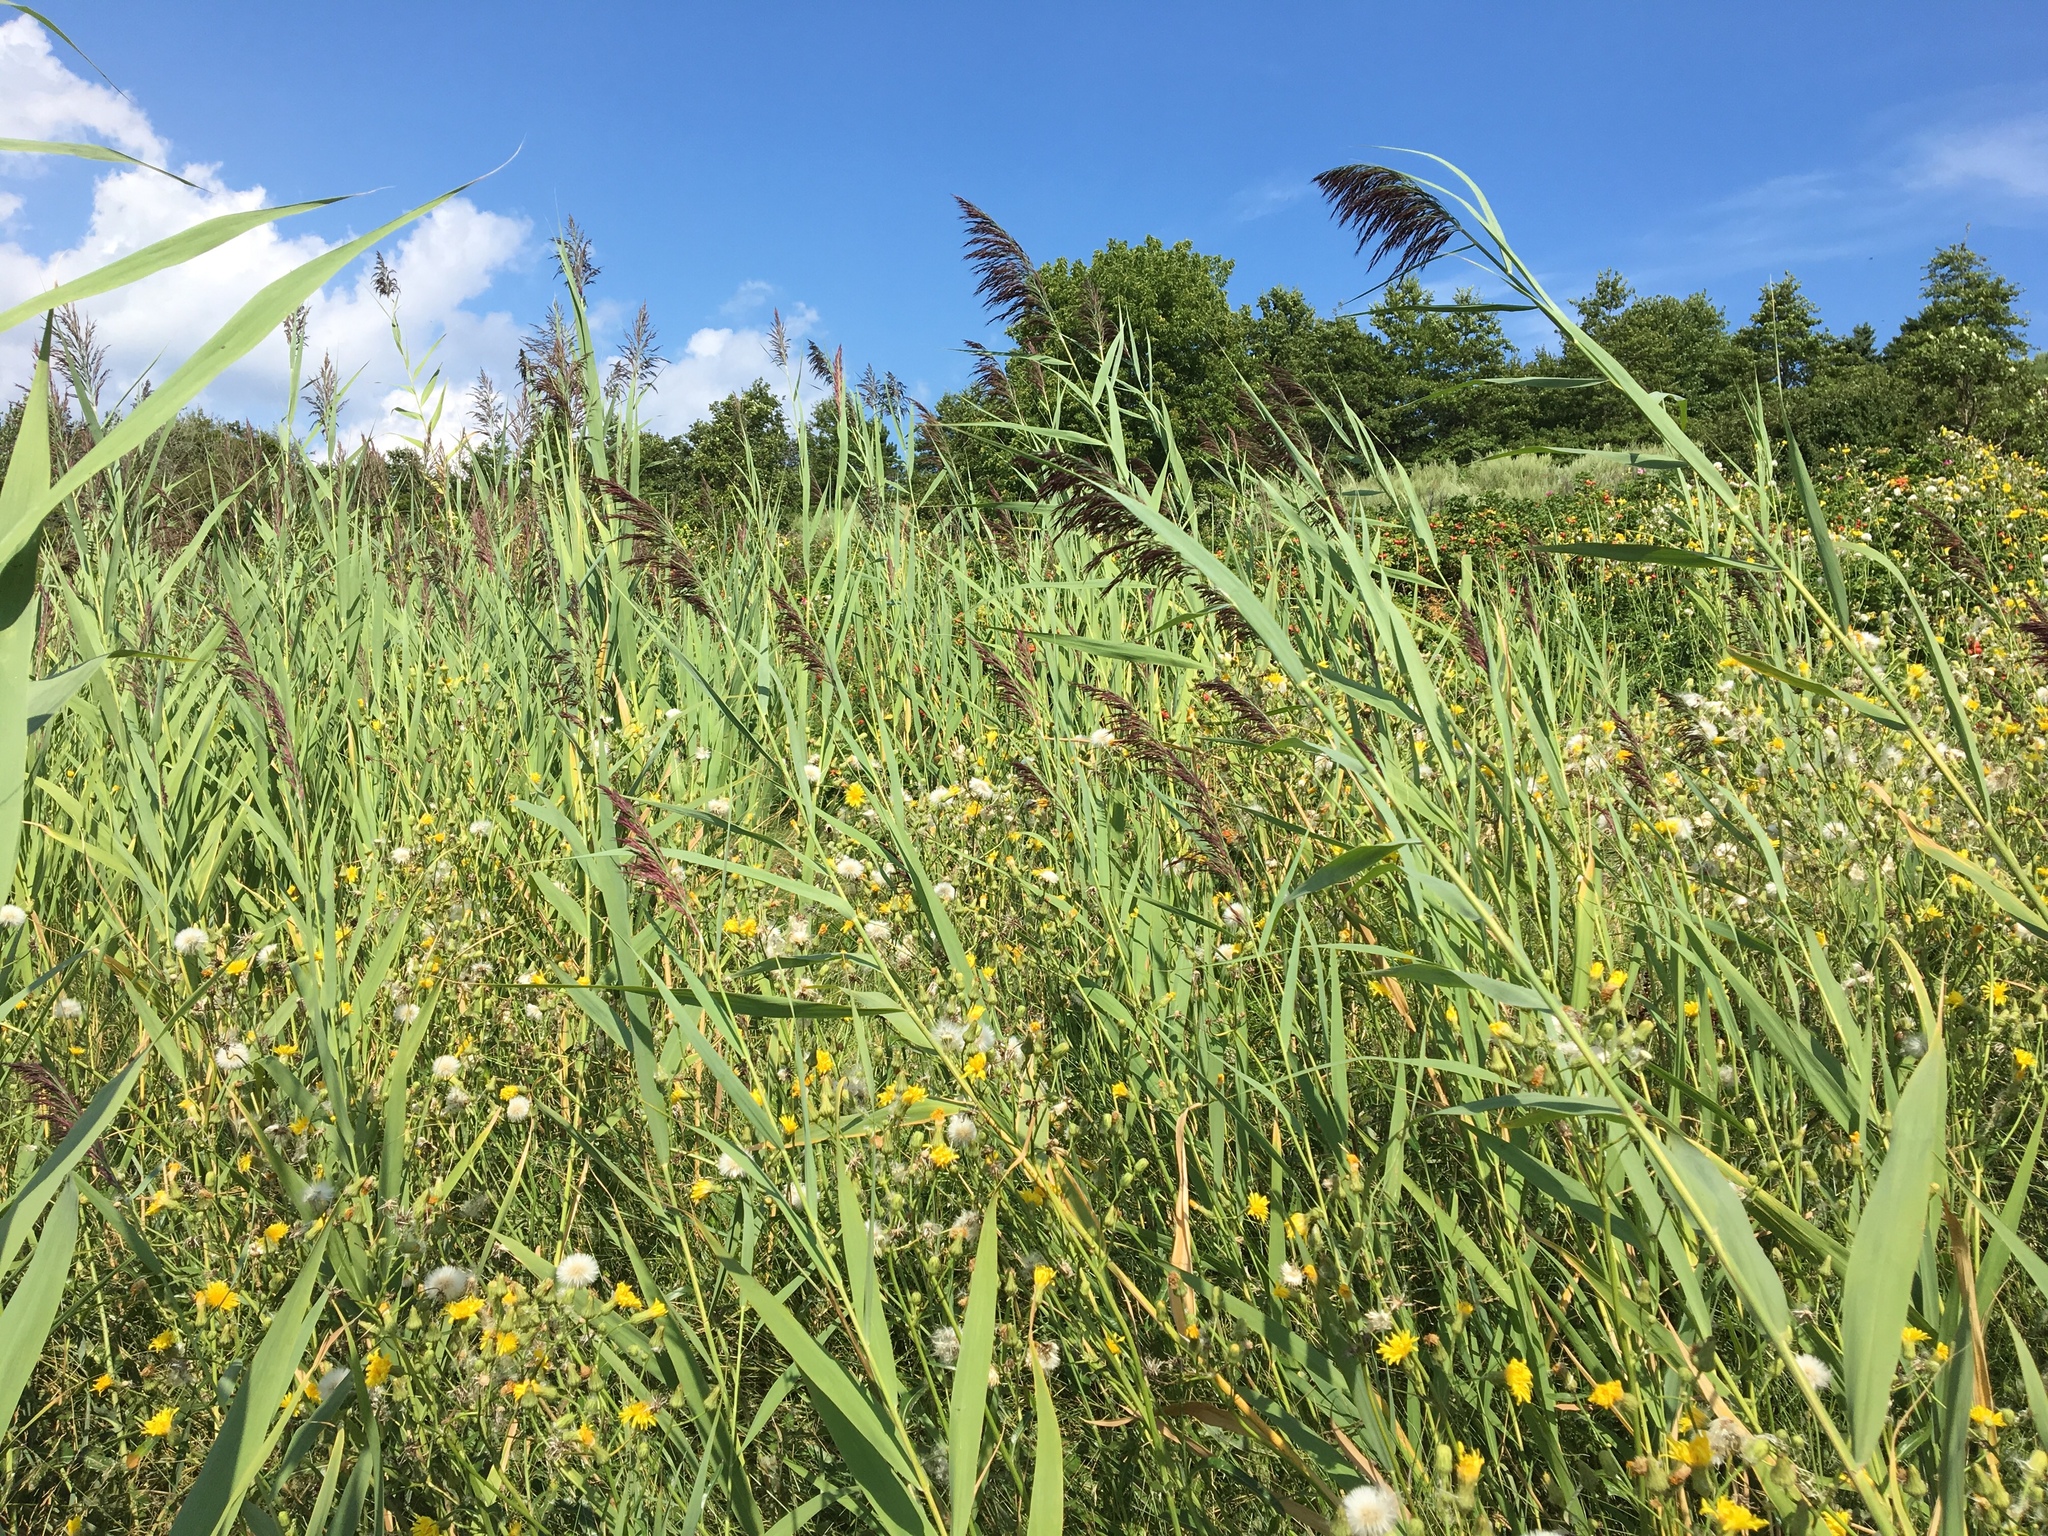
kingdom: Plantae
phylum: Tracheophyta
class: Liliopsida
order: Poales
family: Poaceae
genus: Phragmites
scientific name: Phragmites australis
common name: Common reed
